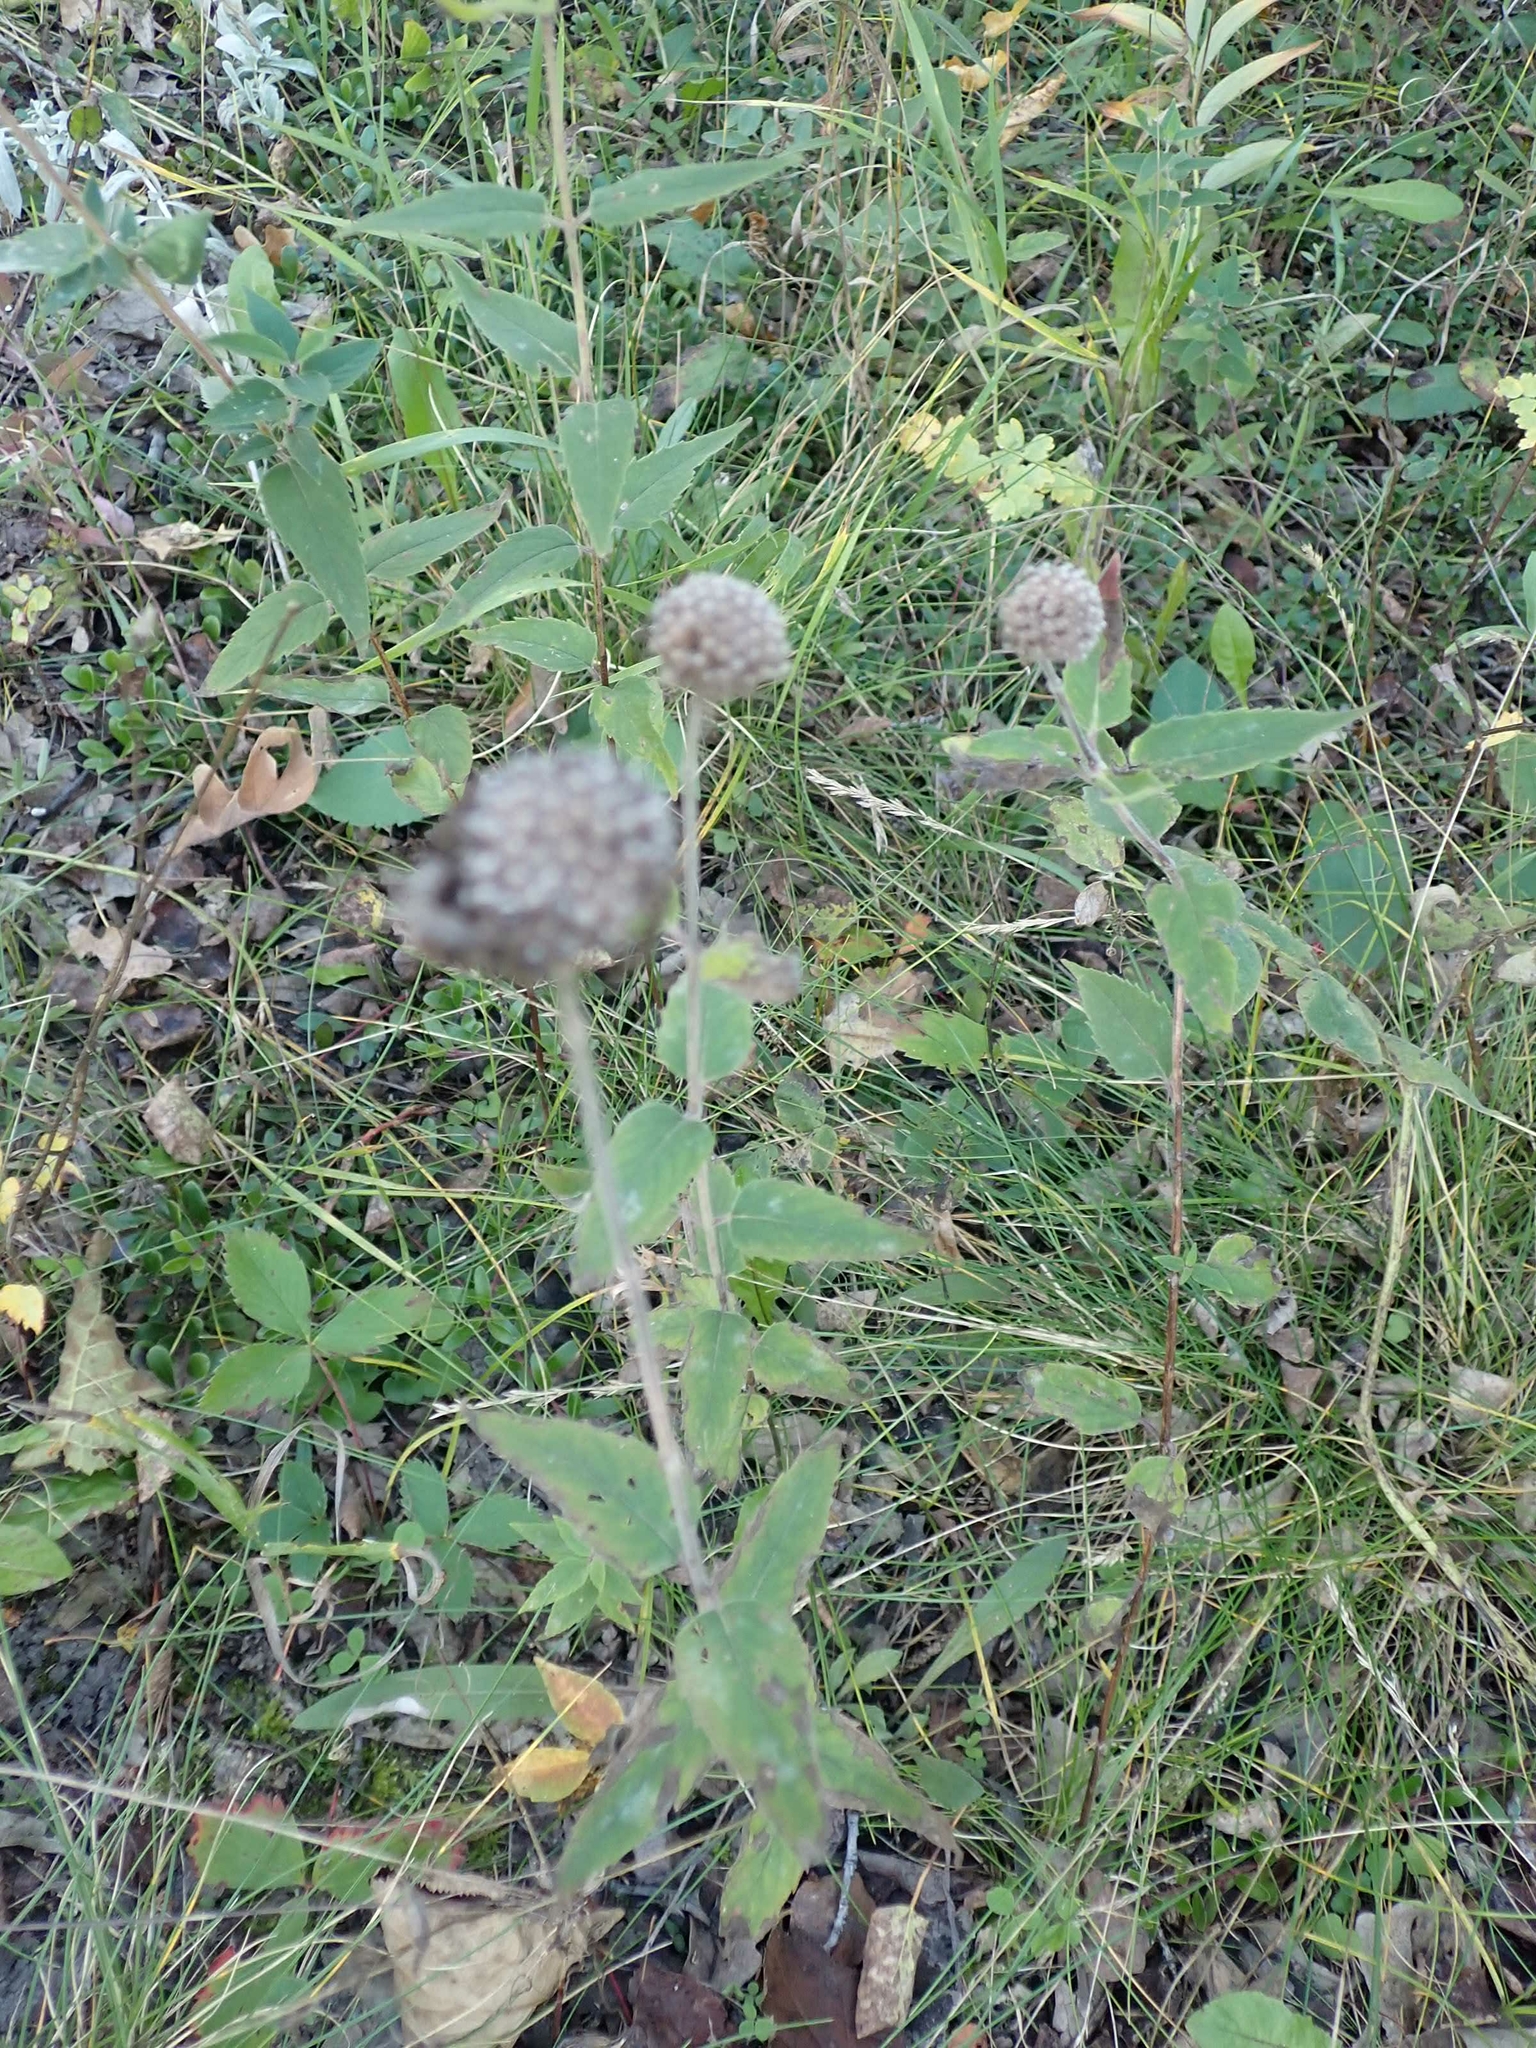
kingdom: Plantae
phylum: Tracheophyta
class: Magnoliopsida
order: Lamiales
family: Lamiaceae
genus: Monarda
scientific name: Monarda fistulosa
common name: Purple beebalm
